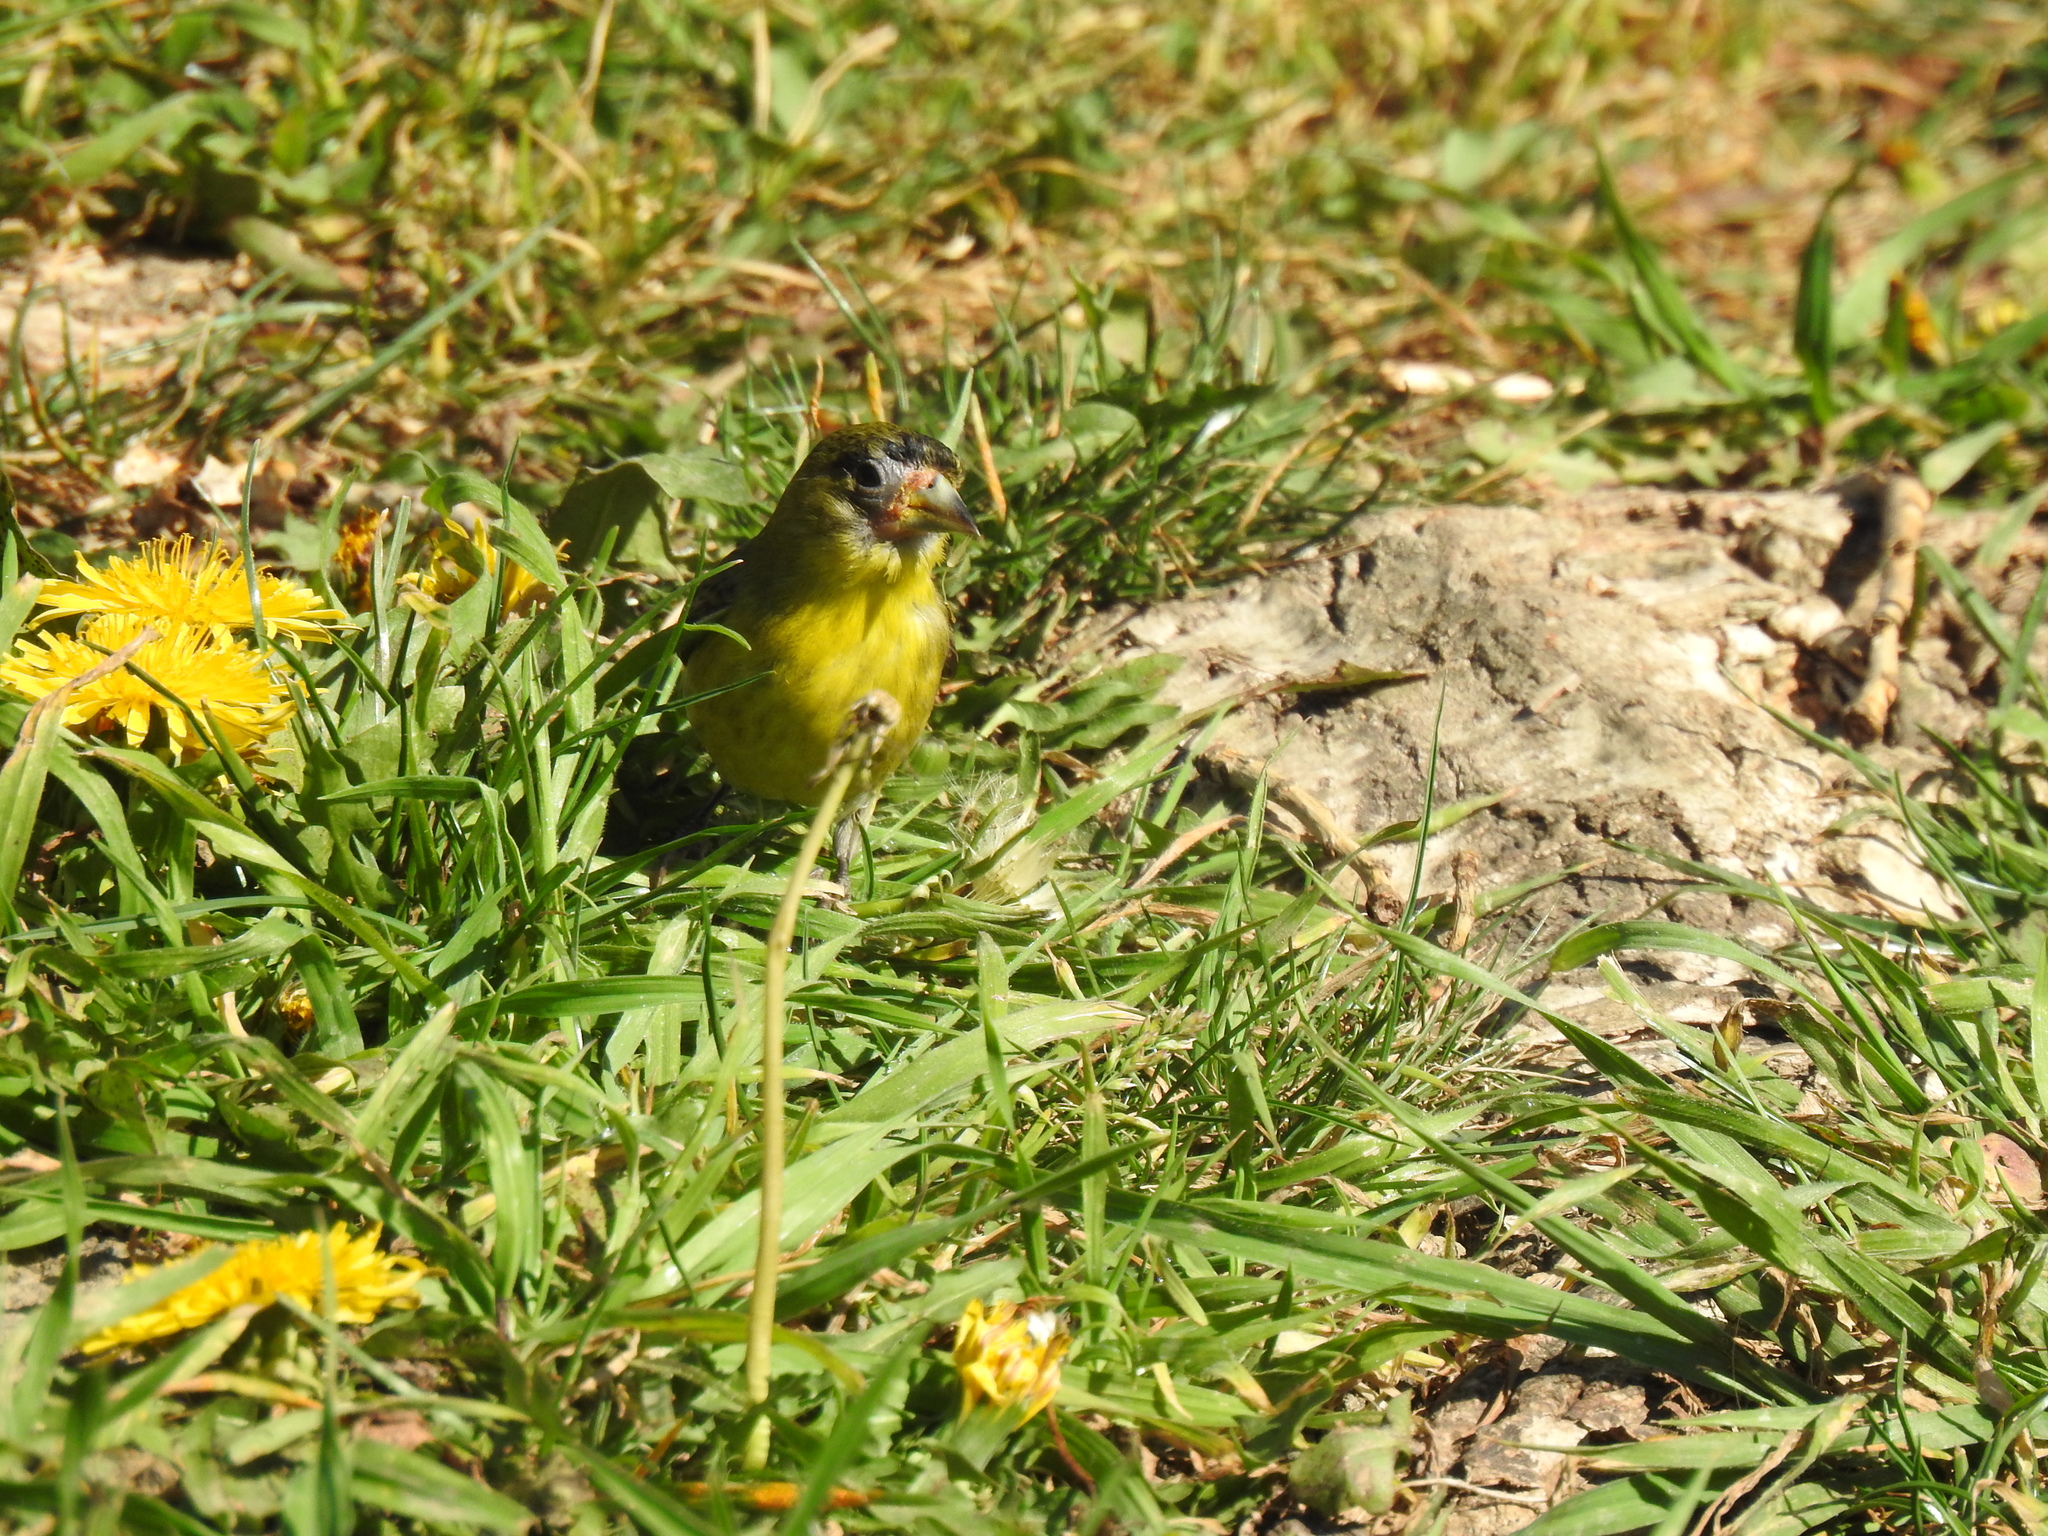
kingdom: Animalia
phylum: Chordata
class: Aves
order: Passeriformes
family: Fringillidae
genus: Spinus
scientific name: Spinus psaltria
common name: Lesser goldfinch
